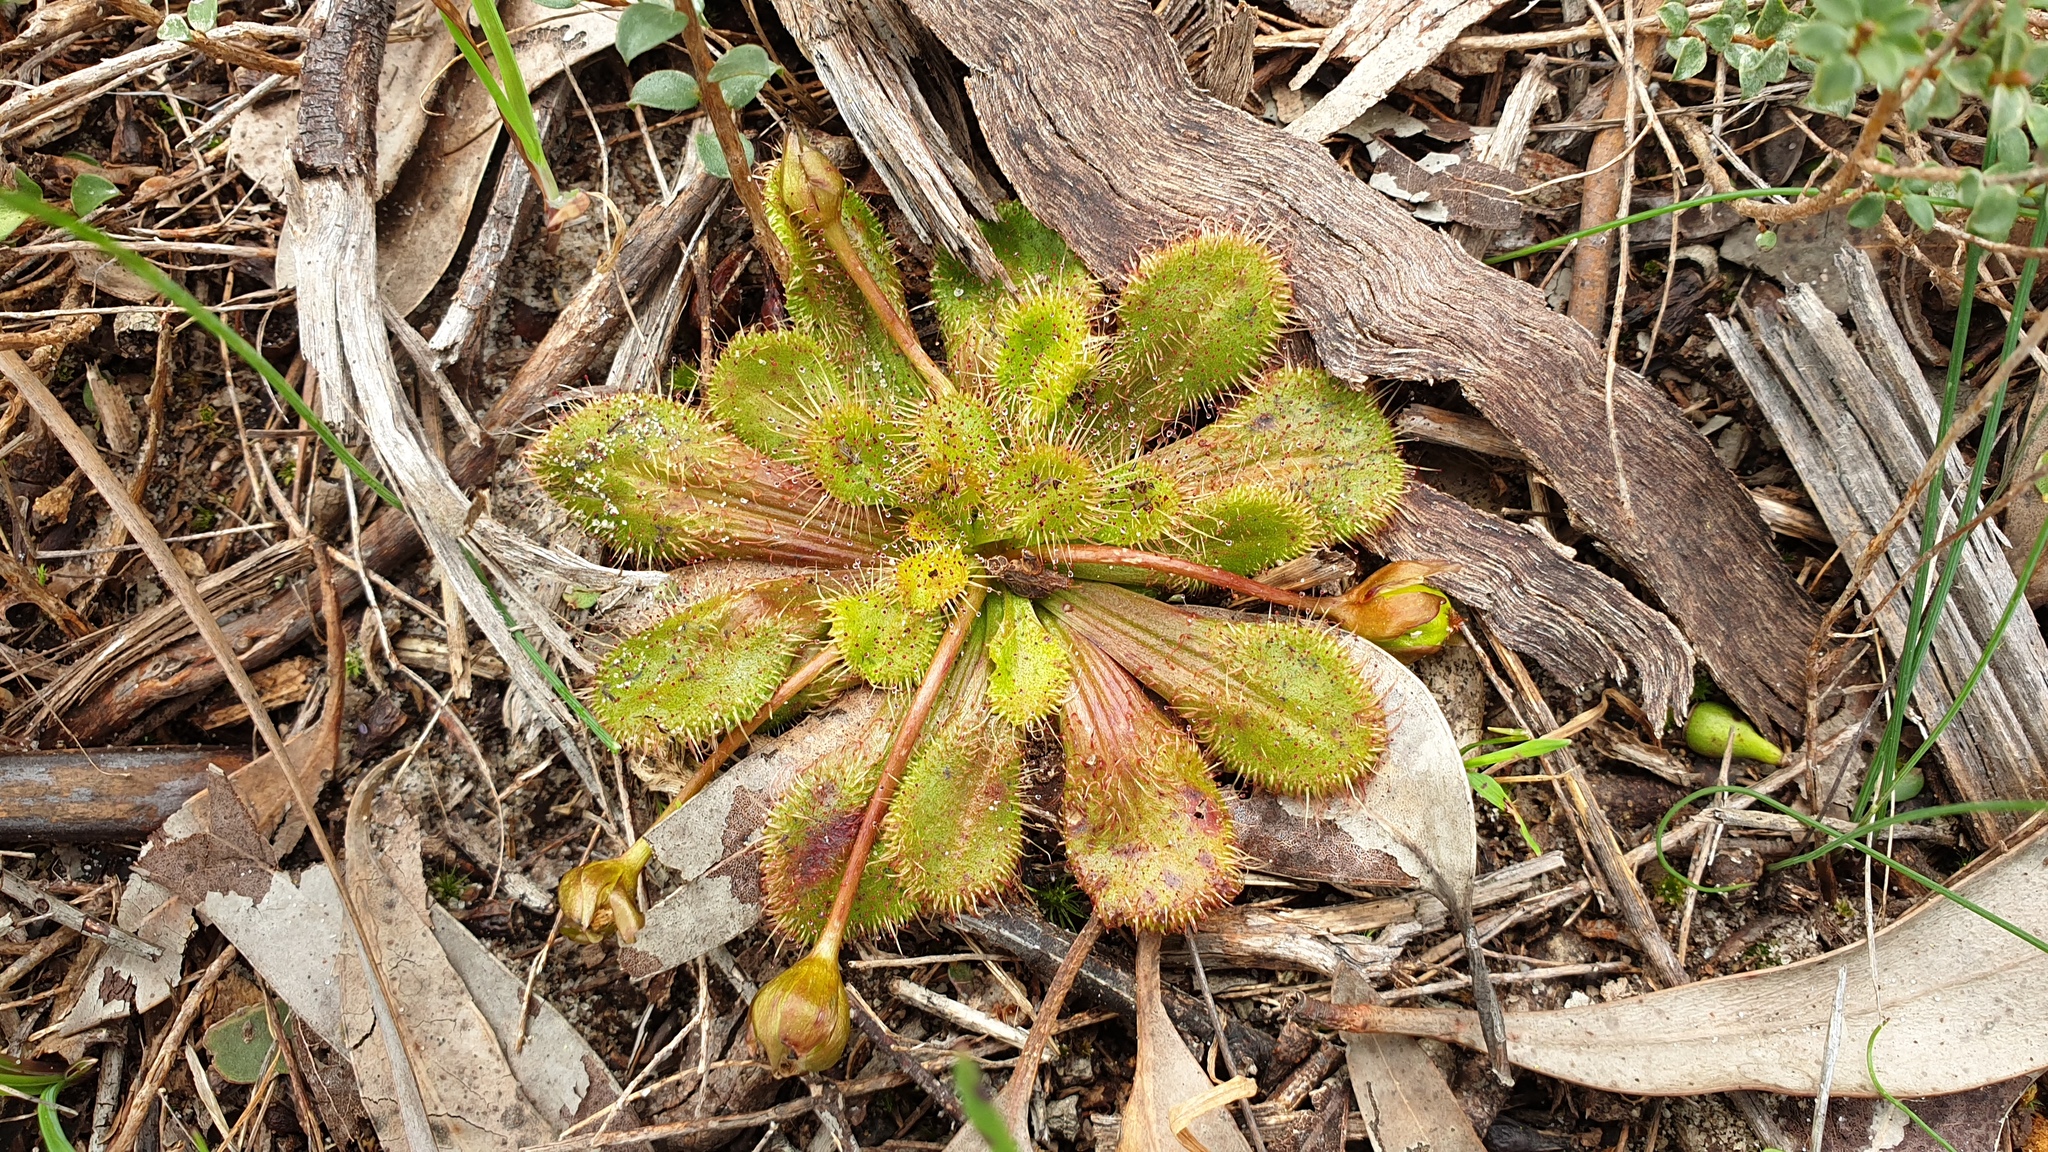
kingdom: Plantae
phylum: Tracheophyta
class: Magnoliopsida
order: Caryophyllales
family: Droseraceae
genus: Drosera
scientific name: Drosera whittakeri
